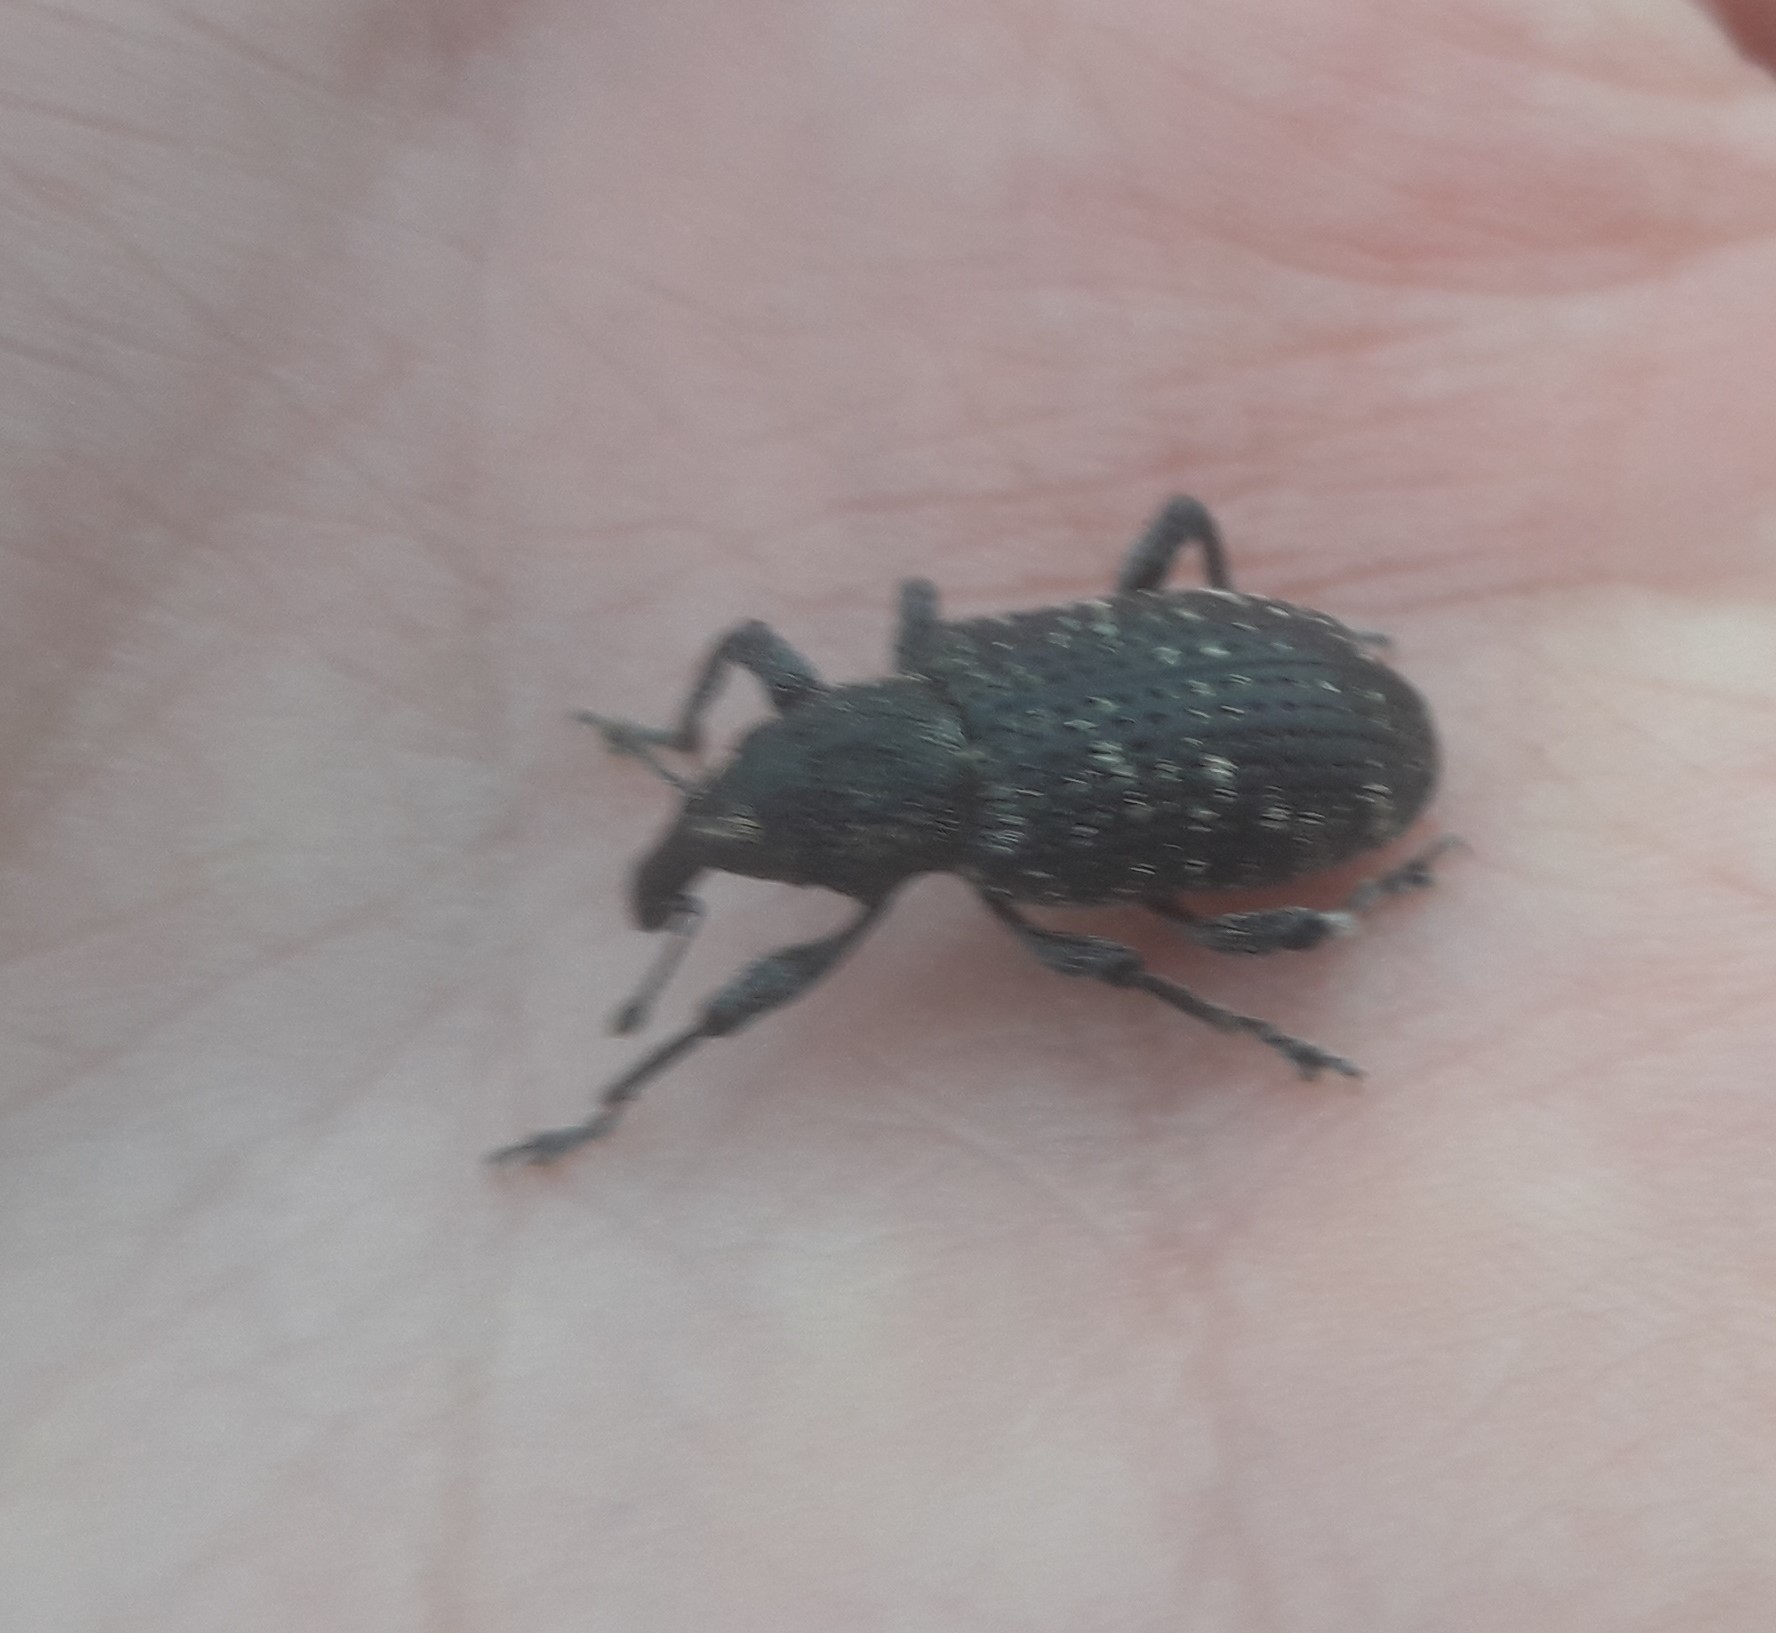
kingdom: Animalia
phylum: Arthropoda
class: Insecta
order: Coleoptera
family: Curculionidae
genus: Hylobius
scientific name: Hylobius excavatus
